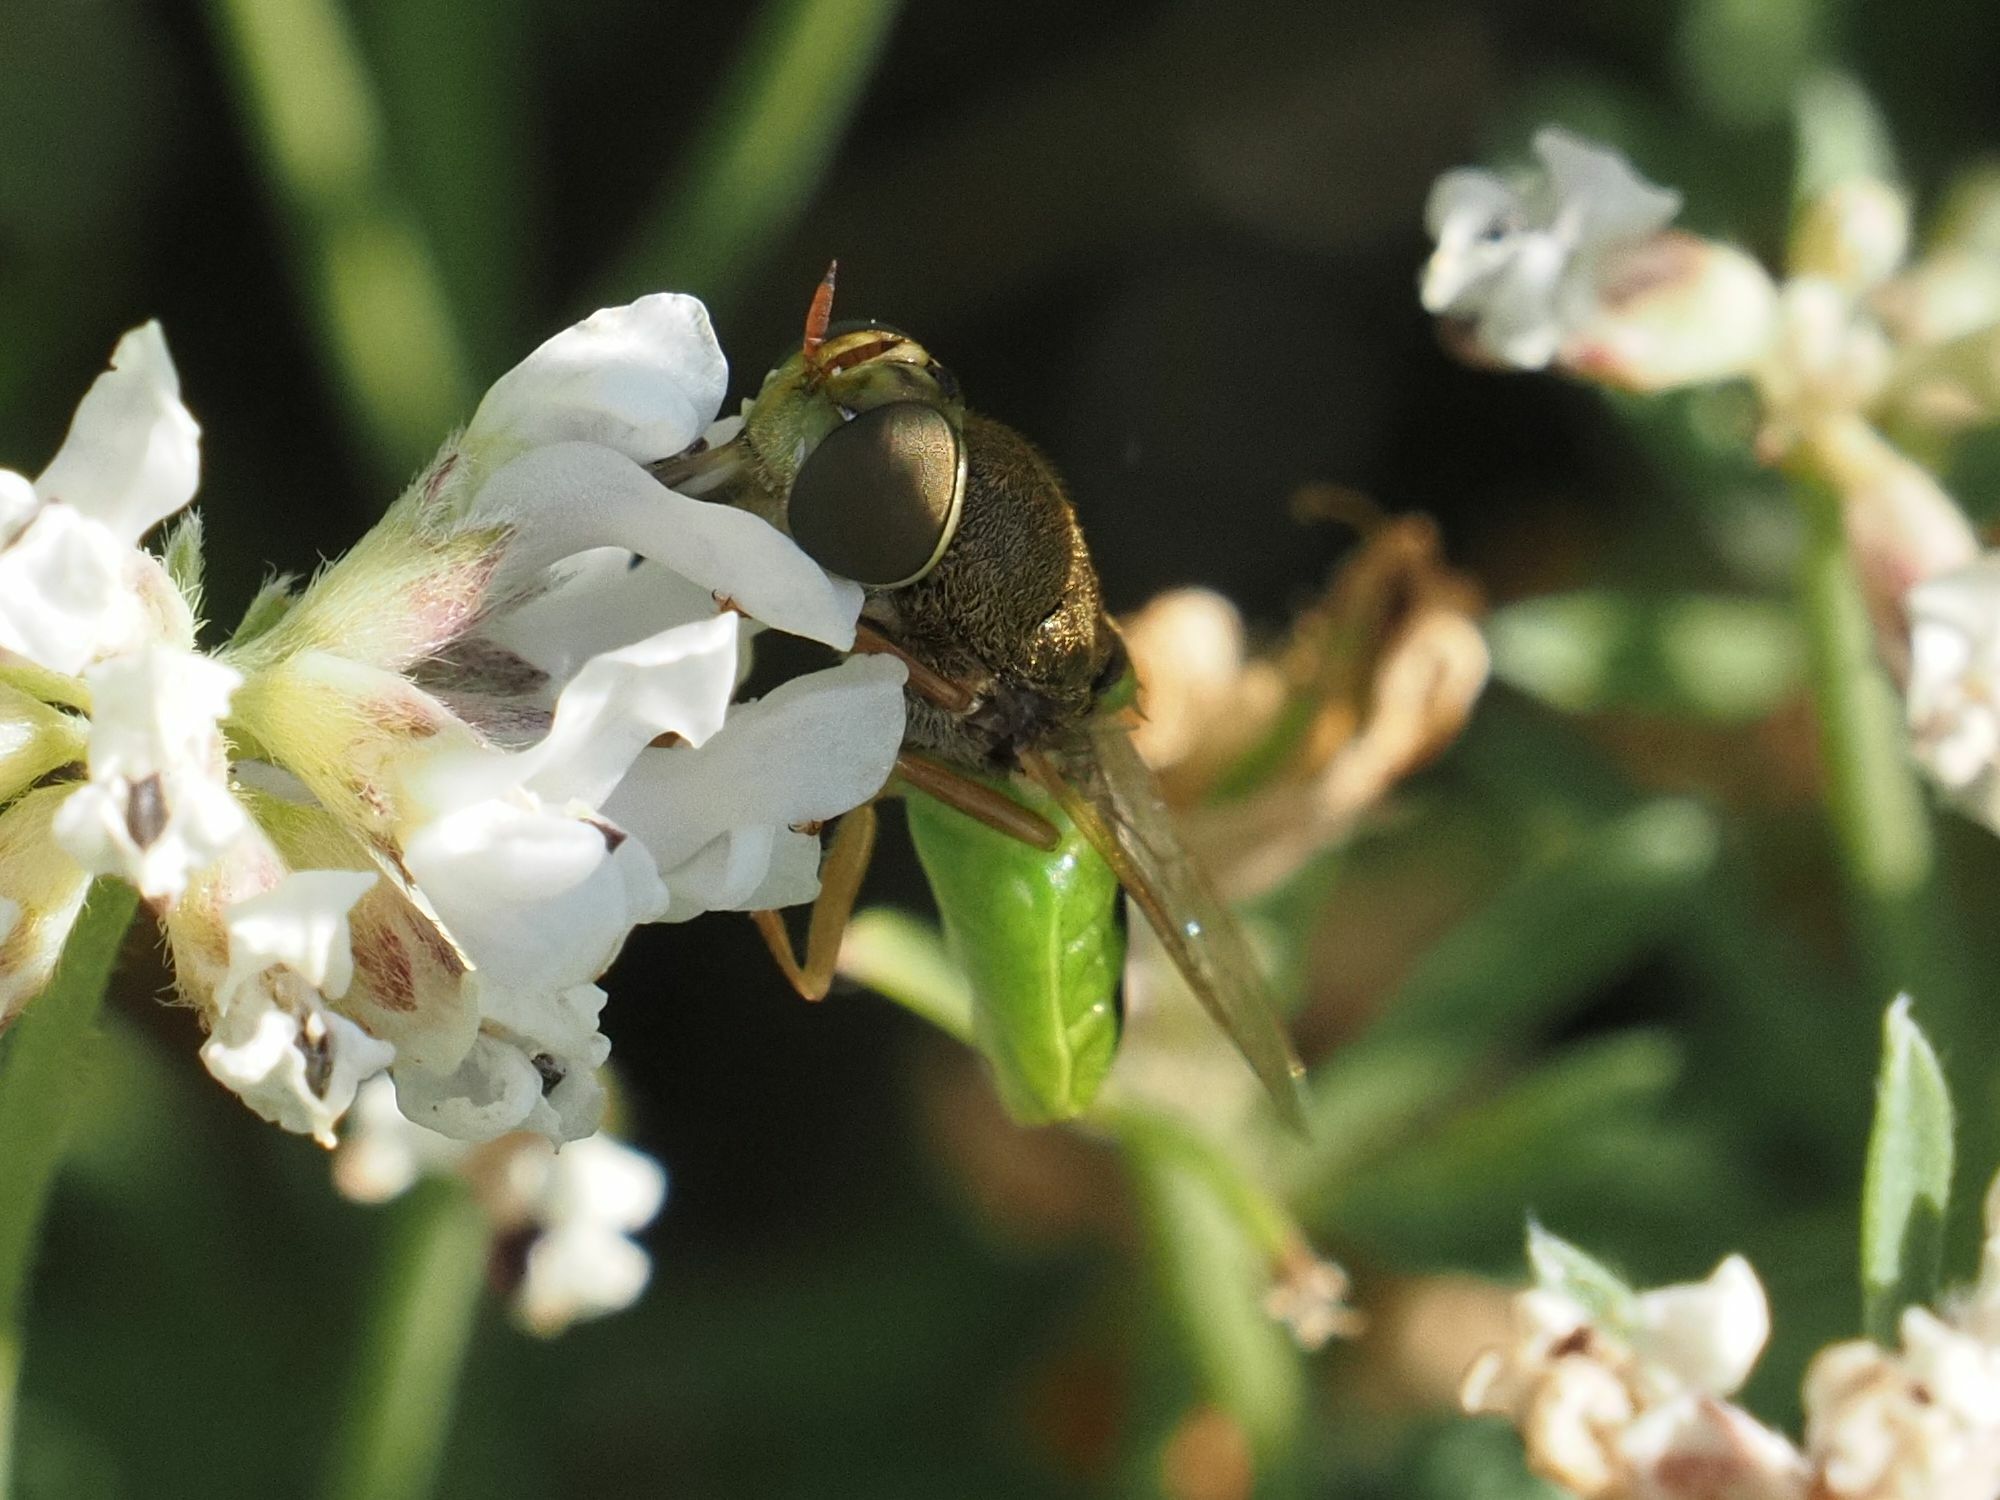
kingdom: Animalia
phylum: Arthropoda
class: Insecta
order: Diptera
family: Stratiomyidae
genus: Odontomyia
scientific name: Odontomyia angulata
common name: Orange-horned green colonel
